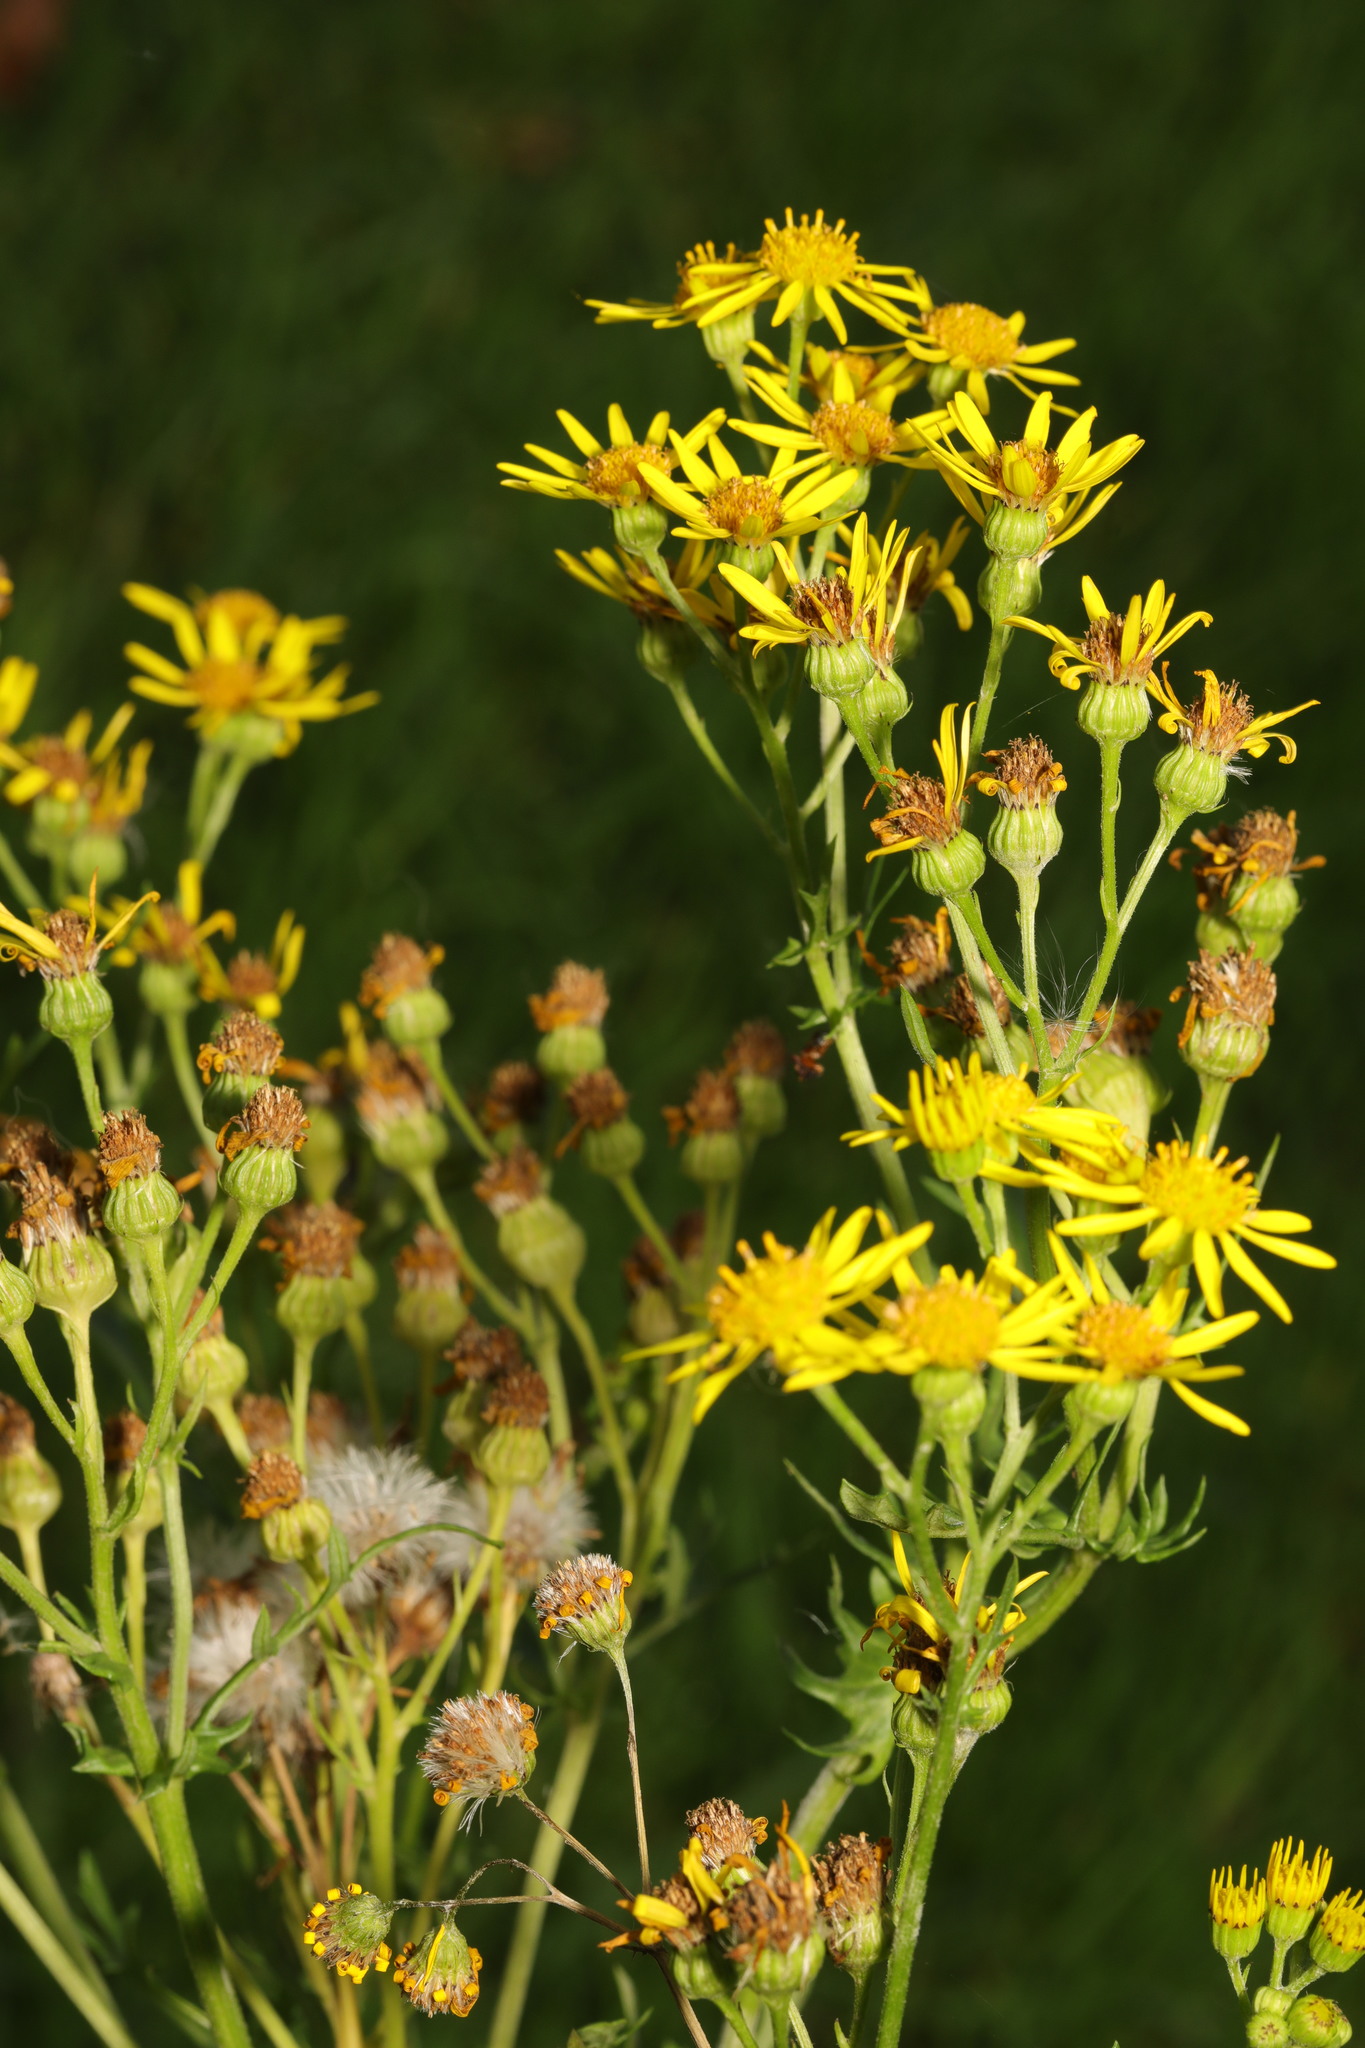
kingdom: Plantae
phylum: Tracheophyta
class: Magnoliopsida
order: Asterales
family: Asteraceae
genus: Jacobaea
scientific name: Jacobaea vulgaris
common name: Stinking willie
